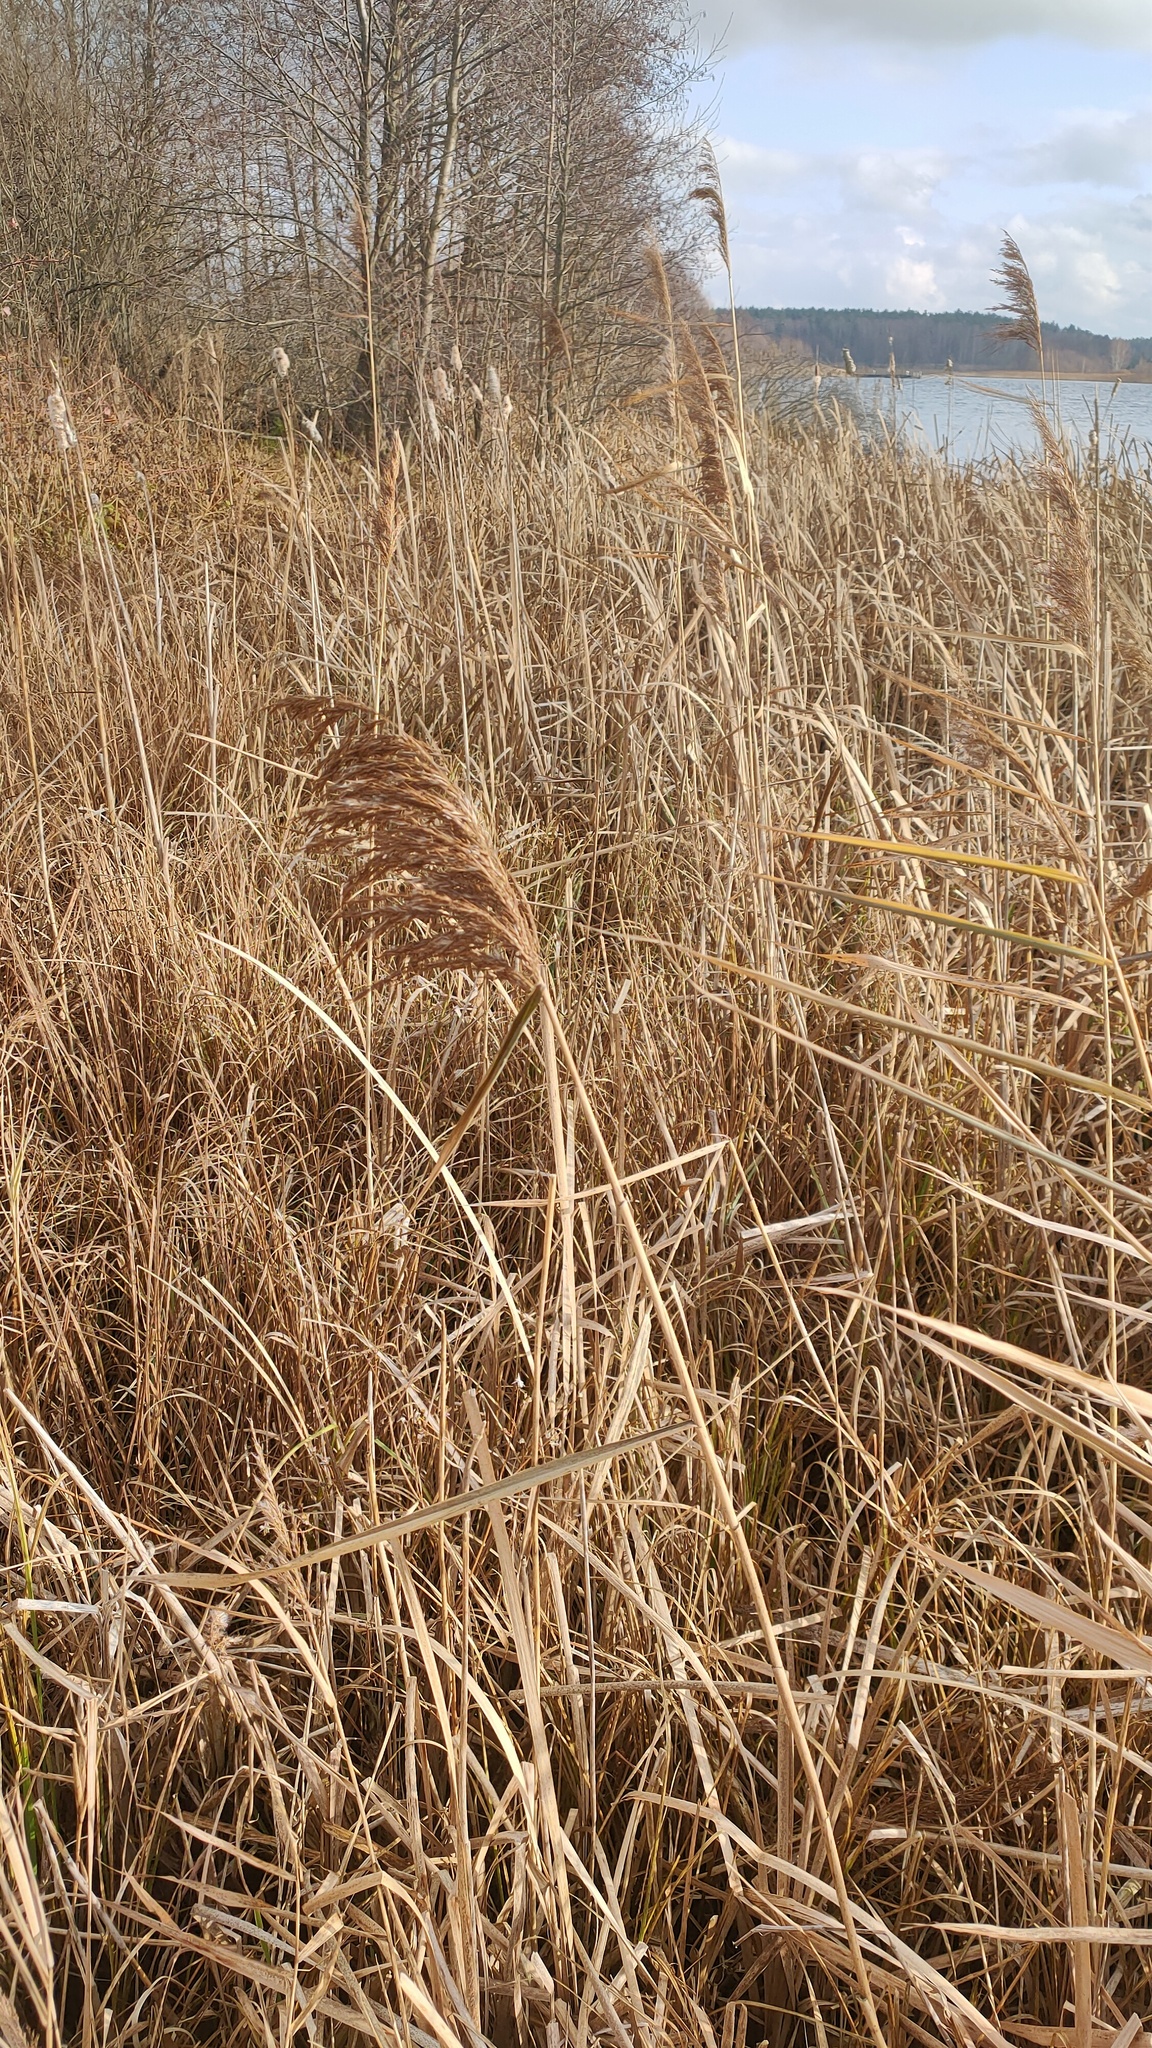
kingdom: Plantae
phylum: Tracheophyta
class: Liliopsida
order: Poales
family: Poaceae
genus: Phragmites
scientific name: Phragmites australis
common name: Common reed
